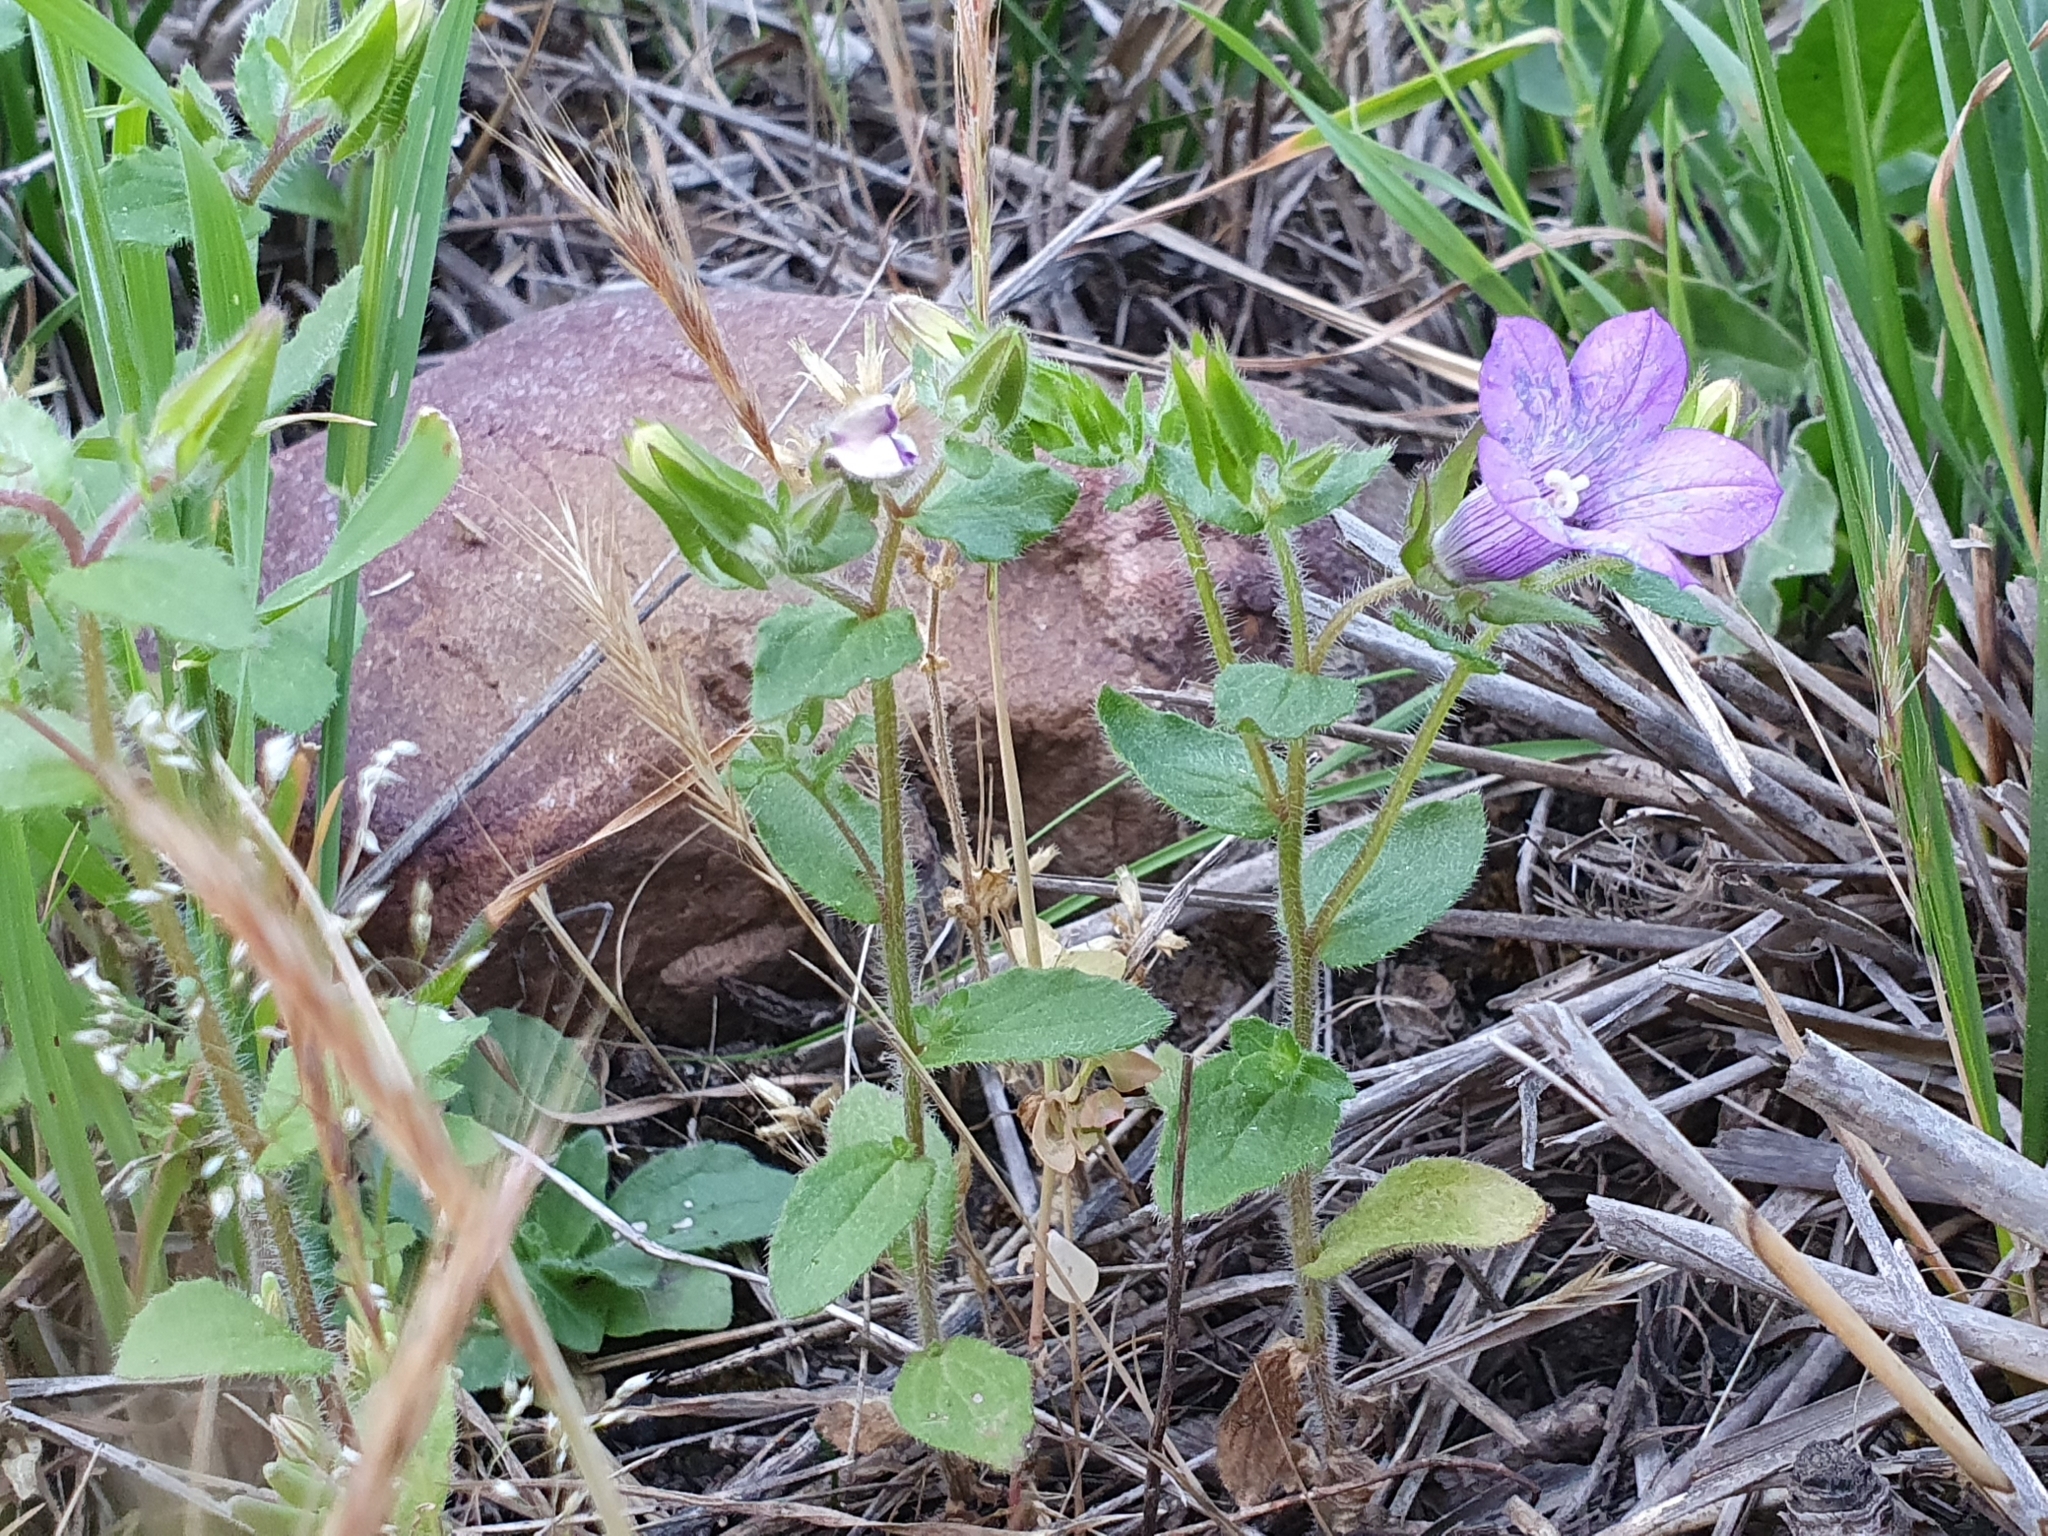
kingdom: Plantae
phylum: Tracheophyta
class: Magnoliopsida
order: Asterales
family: Campanulaceae
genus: Campanula
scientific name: Campanula dichotoma
